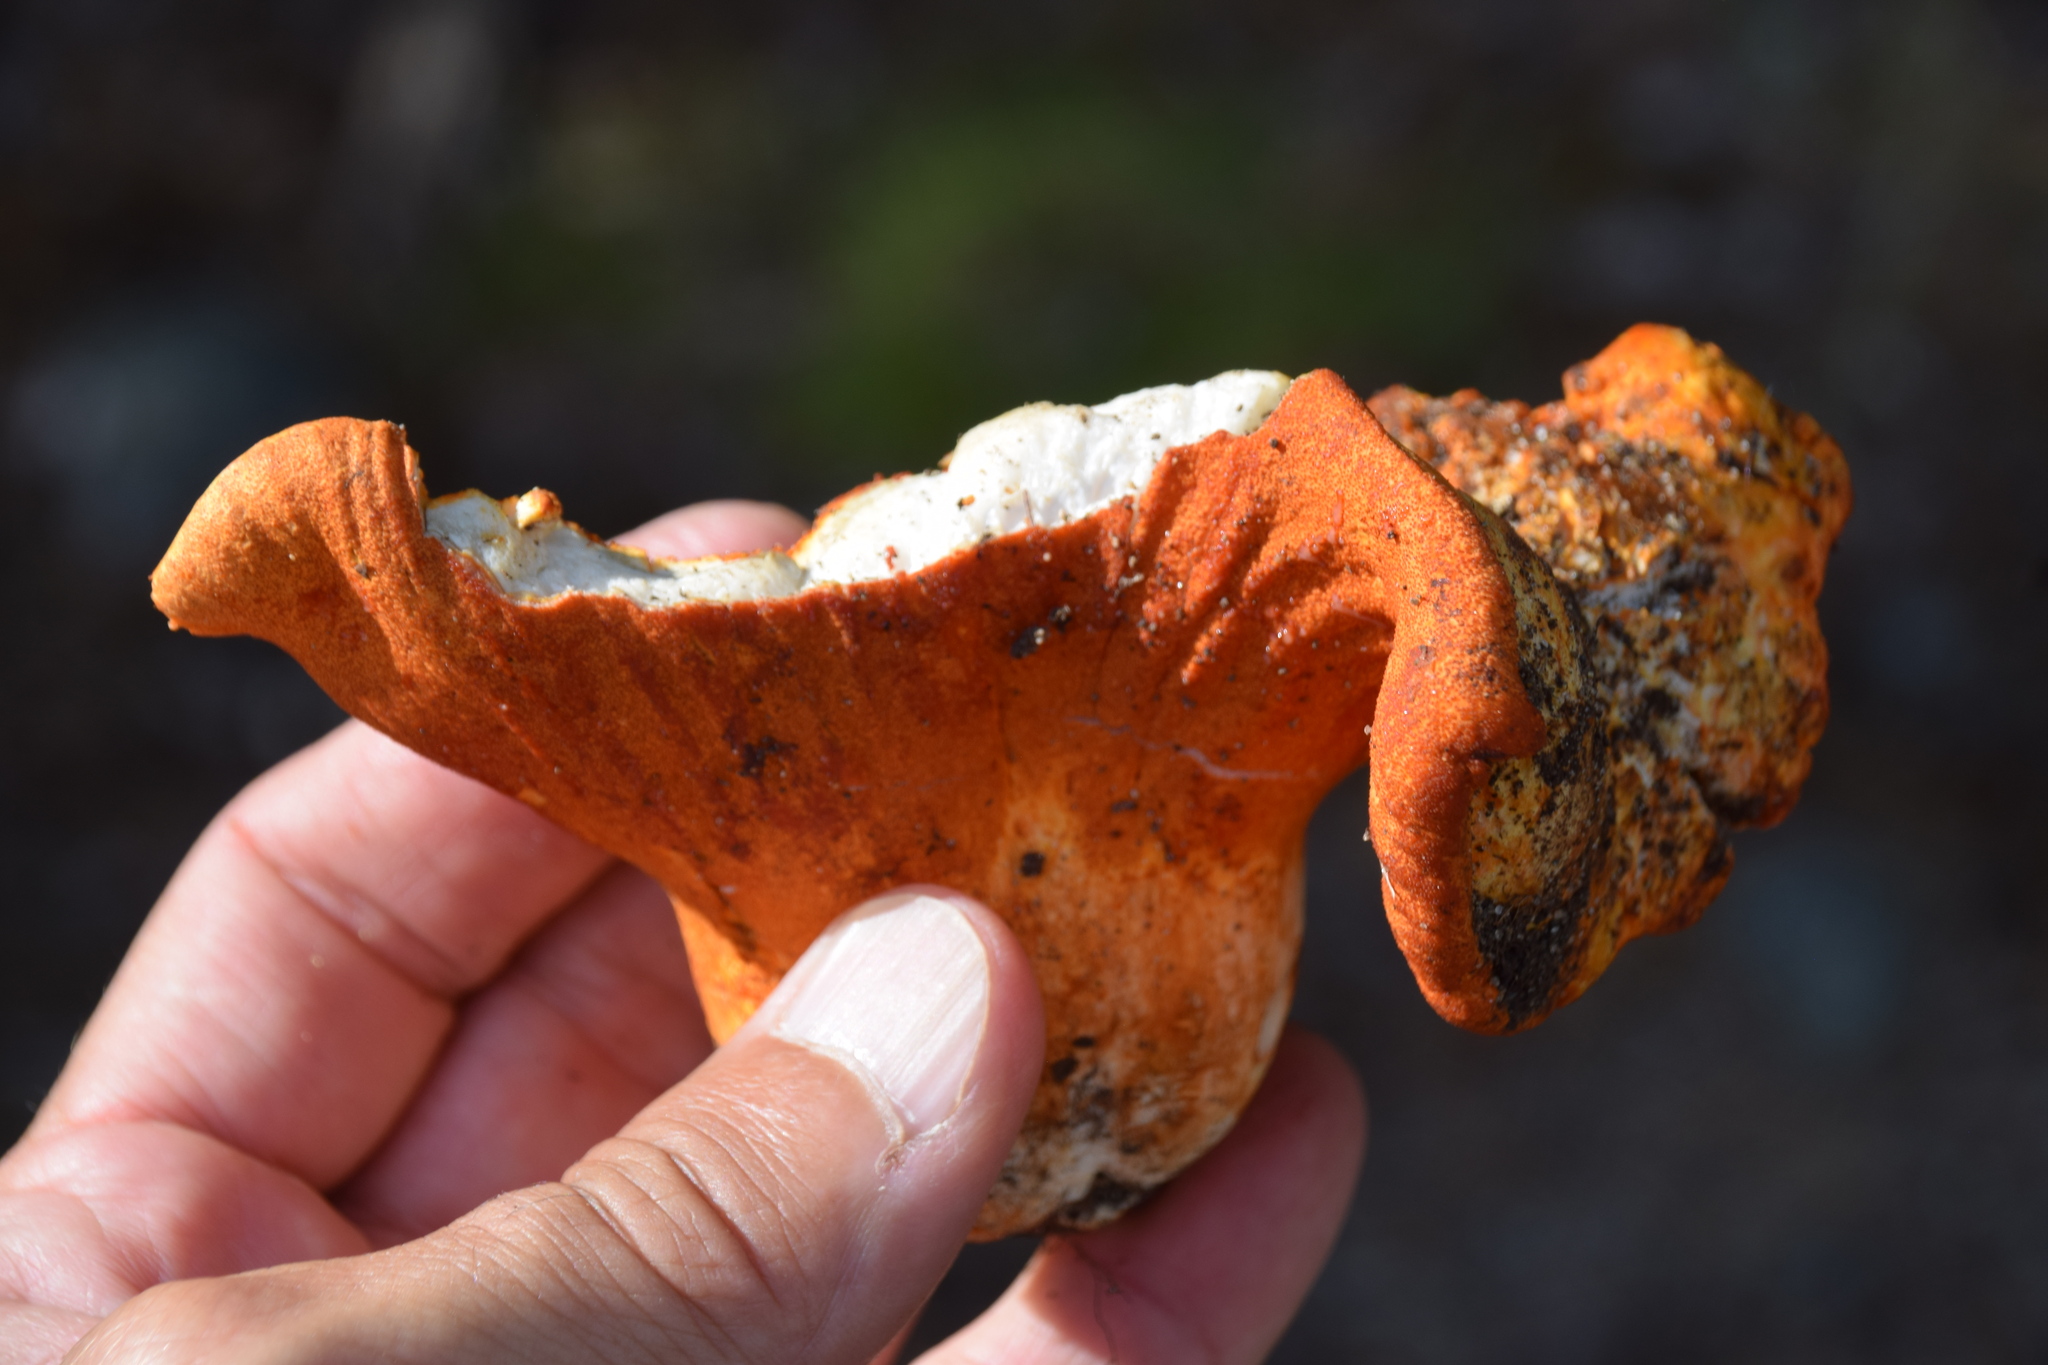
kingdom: Fungi
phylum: Ascomycota
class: Sordariomycetes
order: Hypocreales
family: Hypocreaceae
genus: Hypomyces
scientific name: Hypomyces lactifluorum
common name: Lobster mushroom
